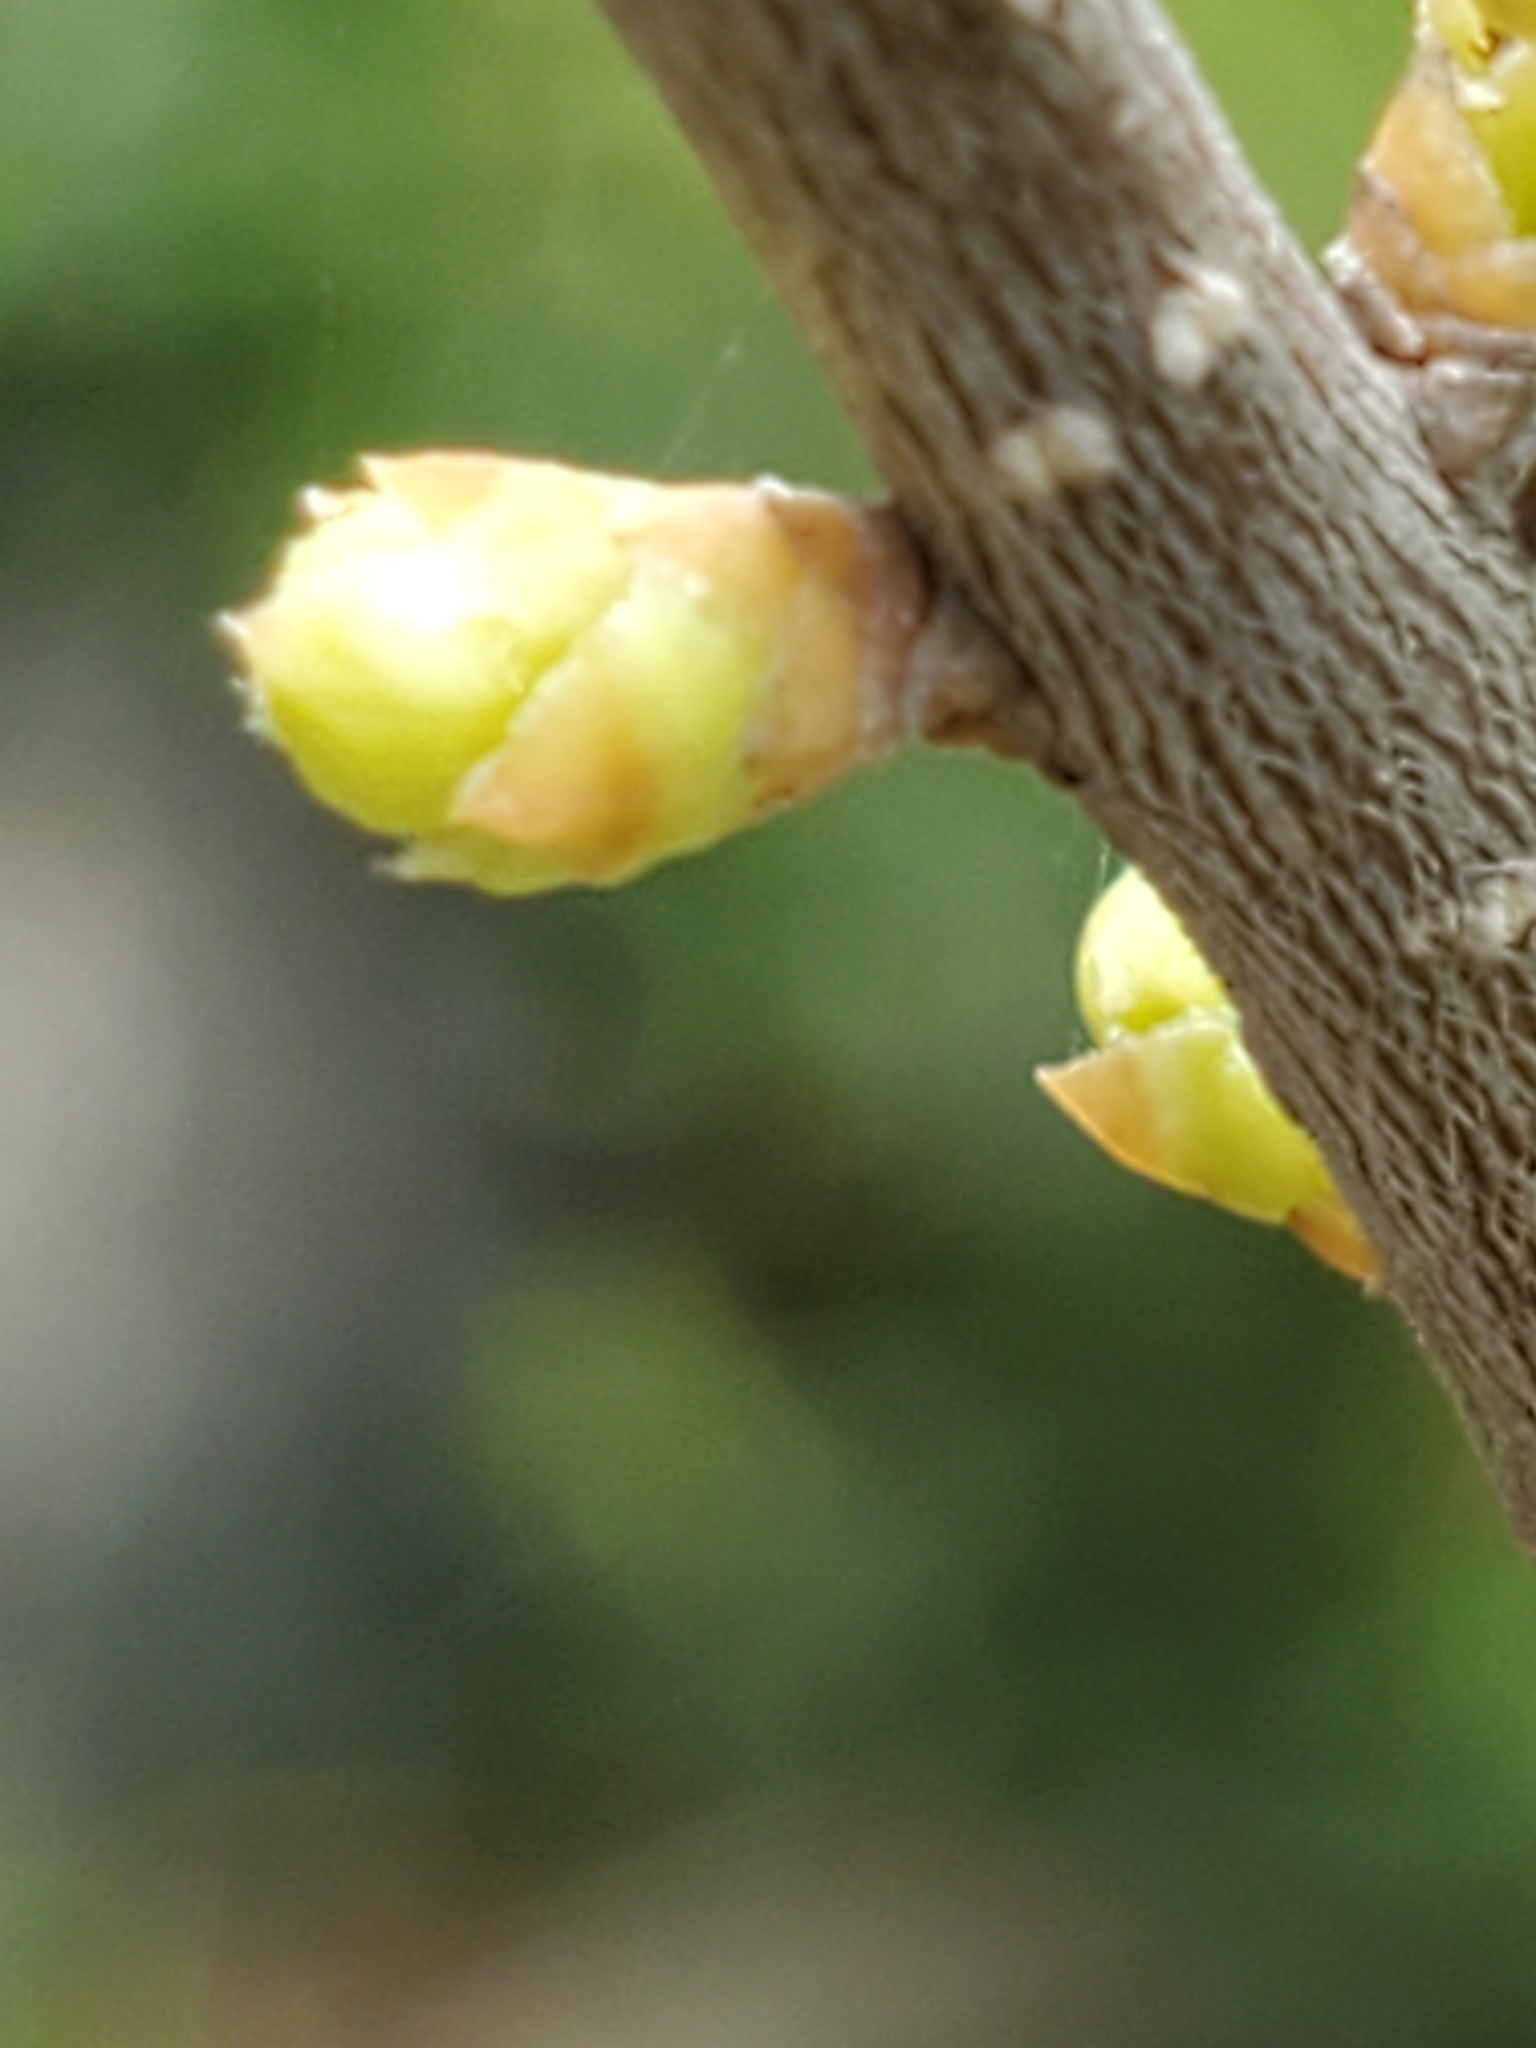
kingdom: Plantae
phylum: Tracheophyta
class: Magnoliopsida
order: Lamiales
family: Oleaceae
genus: Forestiera
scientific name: Forestiera reticulata
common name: Netleaf swamp-privet
